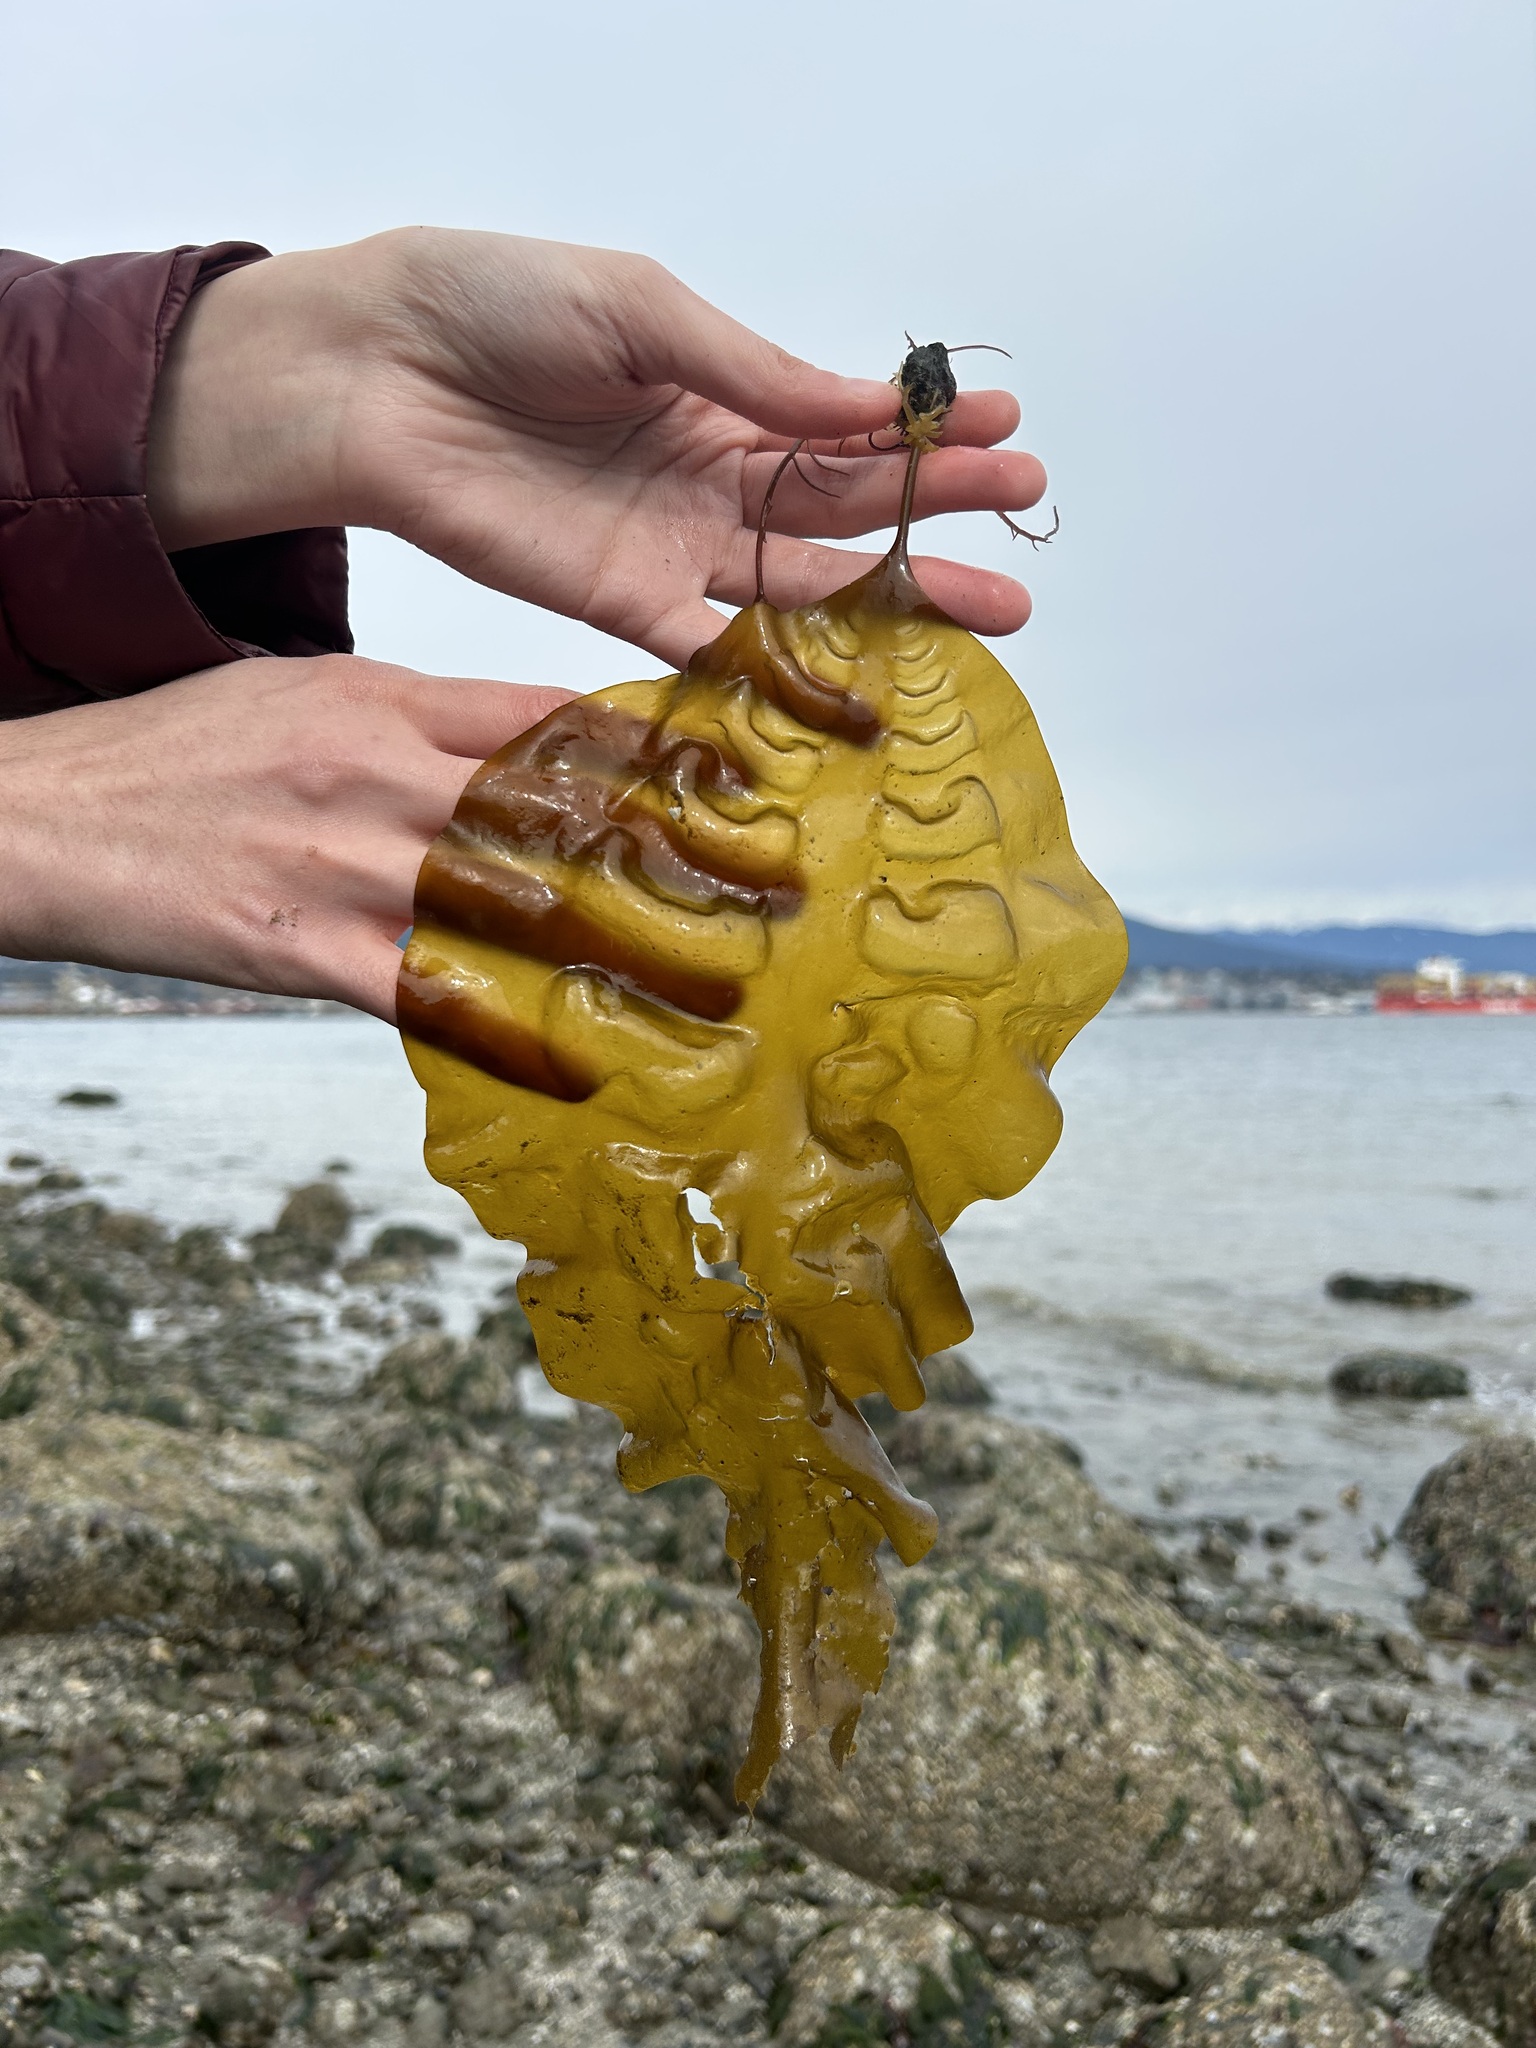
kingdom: Chromista
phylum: Ochrophyta
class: Phaeophyceae
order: Laminariales
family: Laminariaceae
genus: Saccharina
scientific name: Saccharina latissima
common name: Poor man's weather glass
